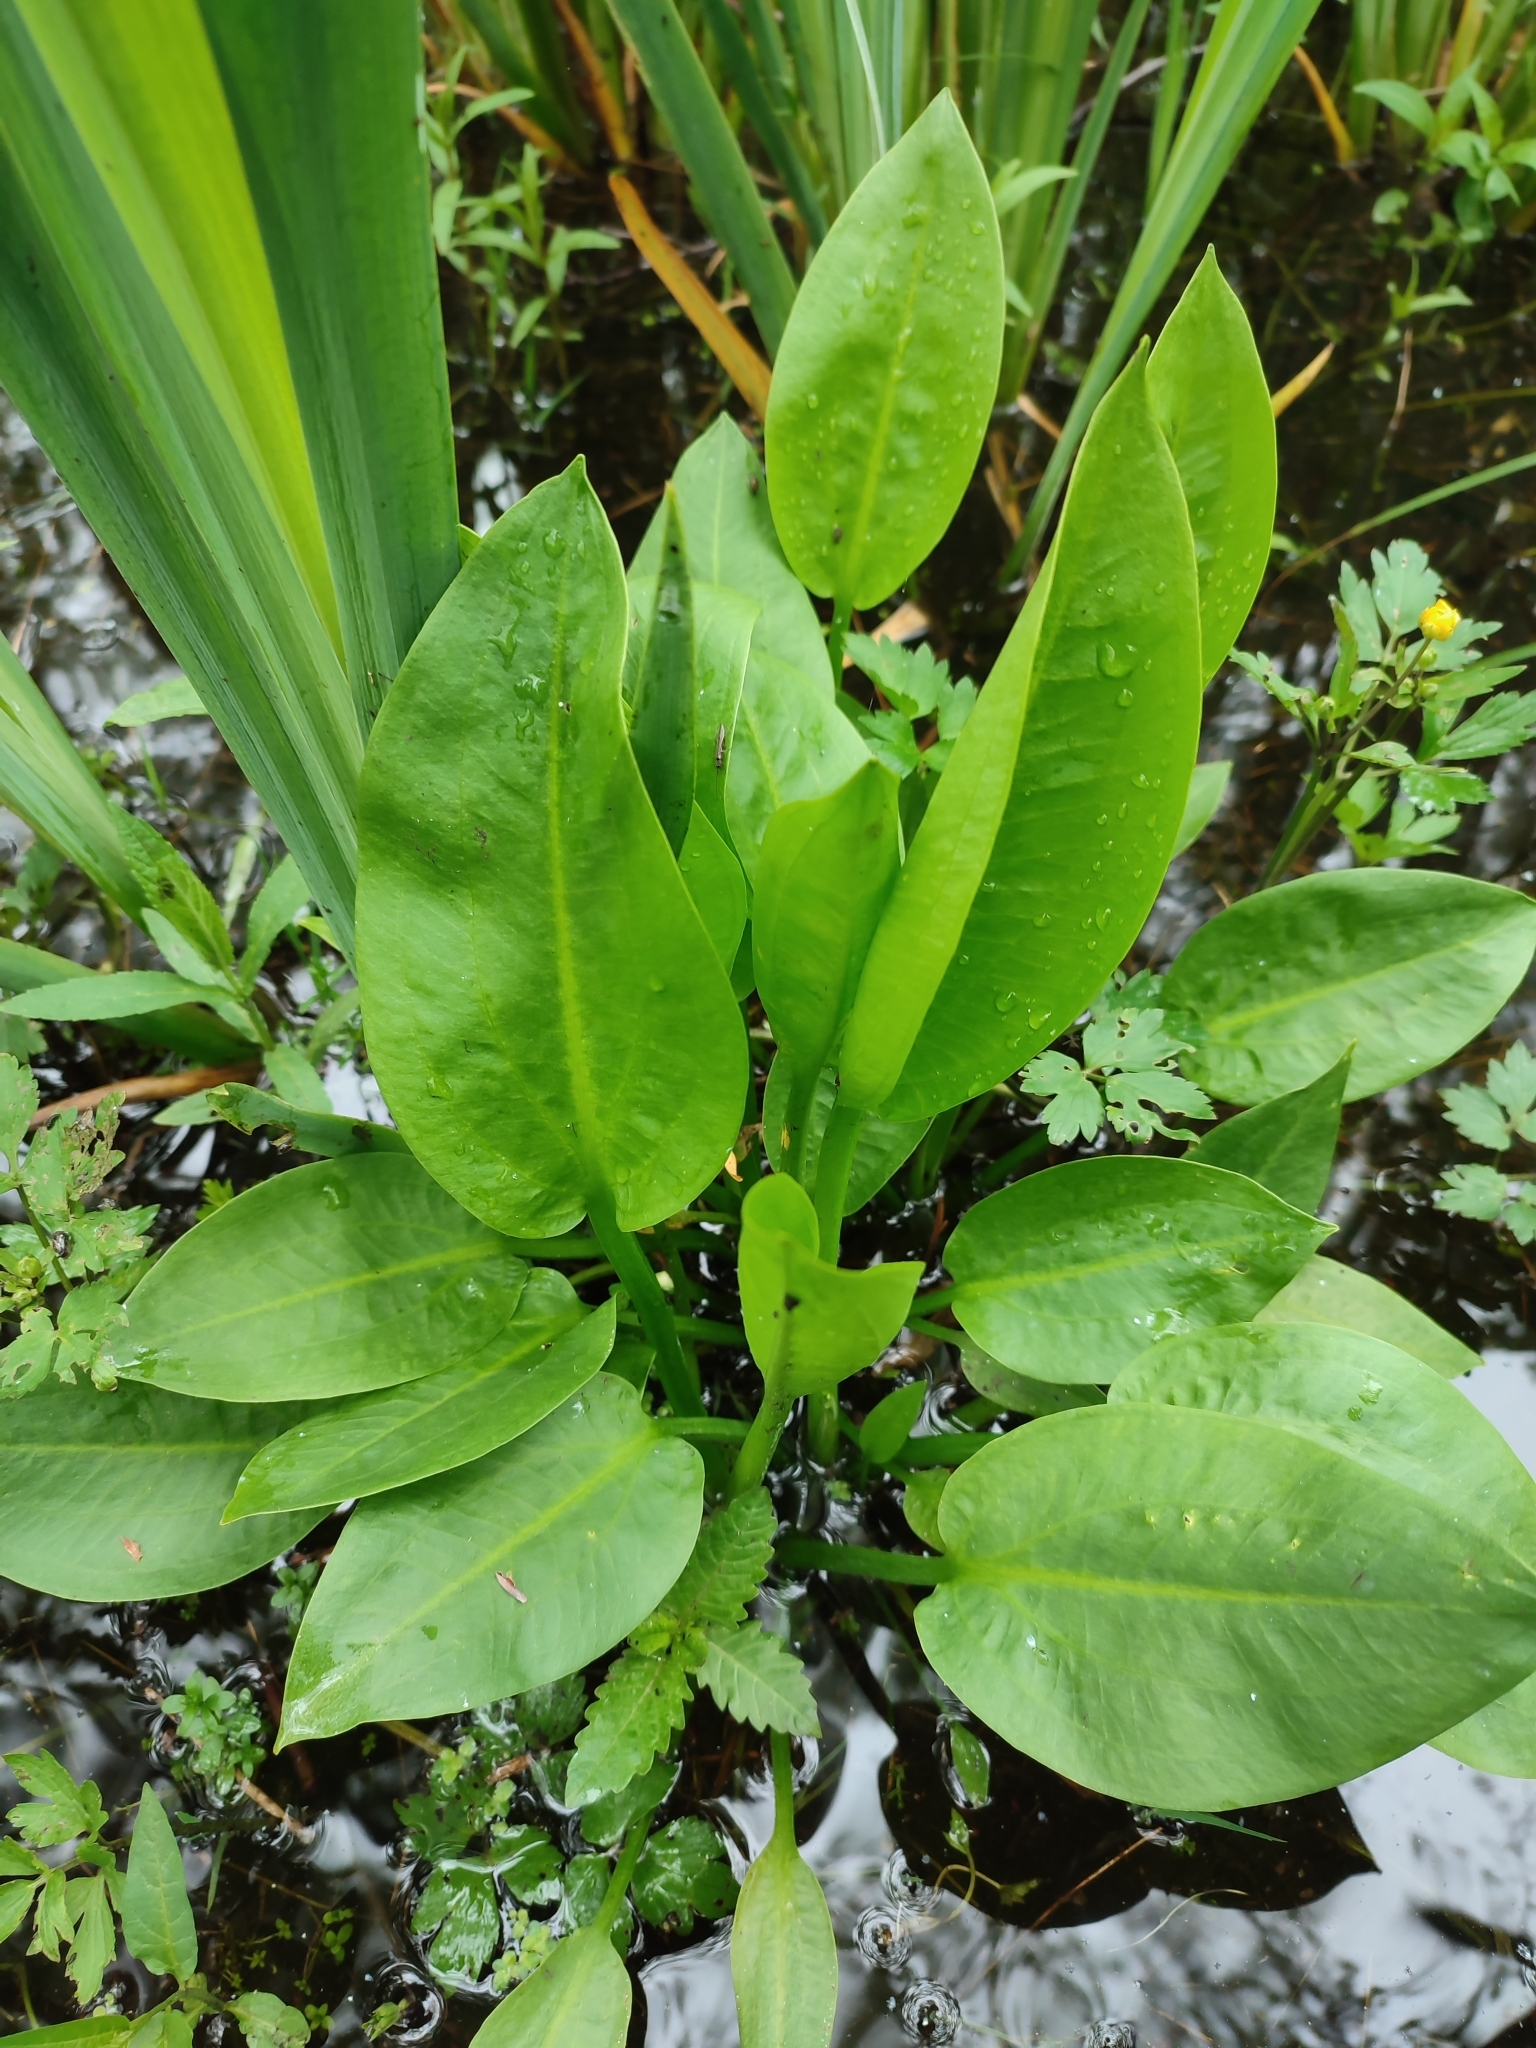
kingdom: Plantae
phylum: Tracheophyta
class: Liliopsida
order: Alismatales
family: Alismataceae
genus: Alisma
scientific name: Alisma plantago-aquatica
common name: Water-plantain
